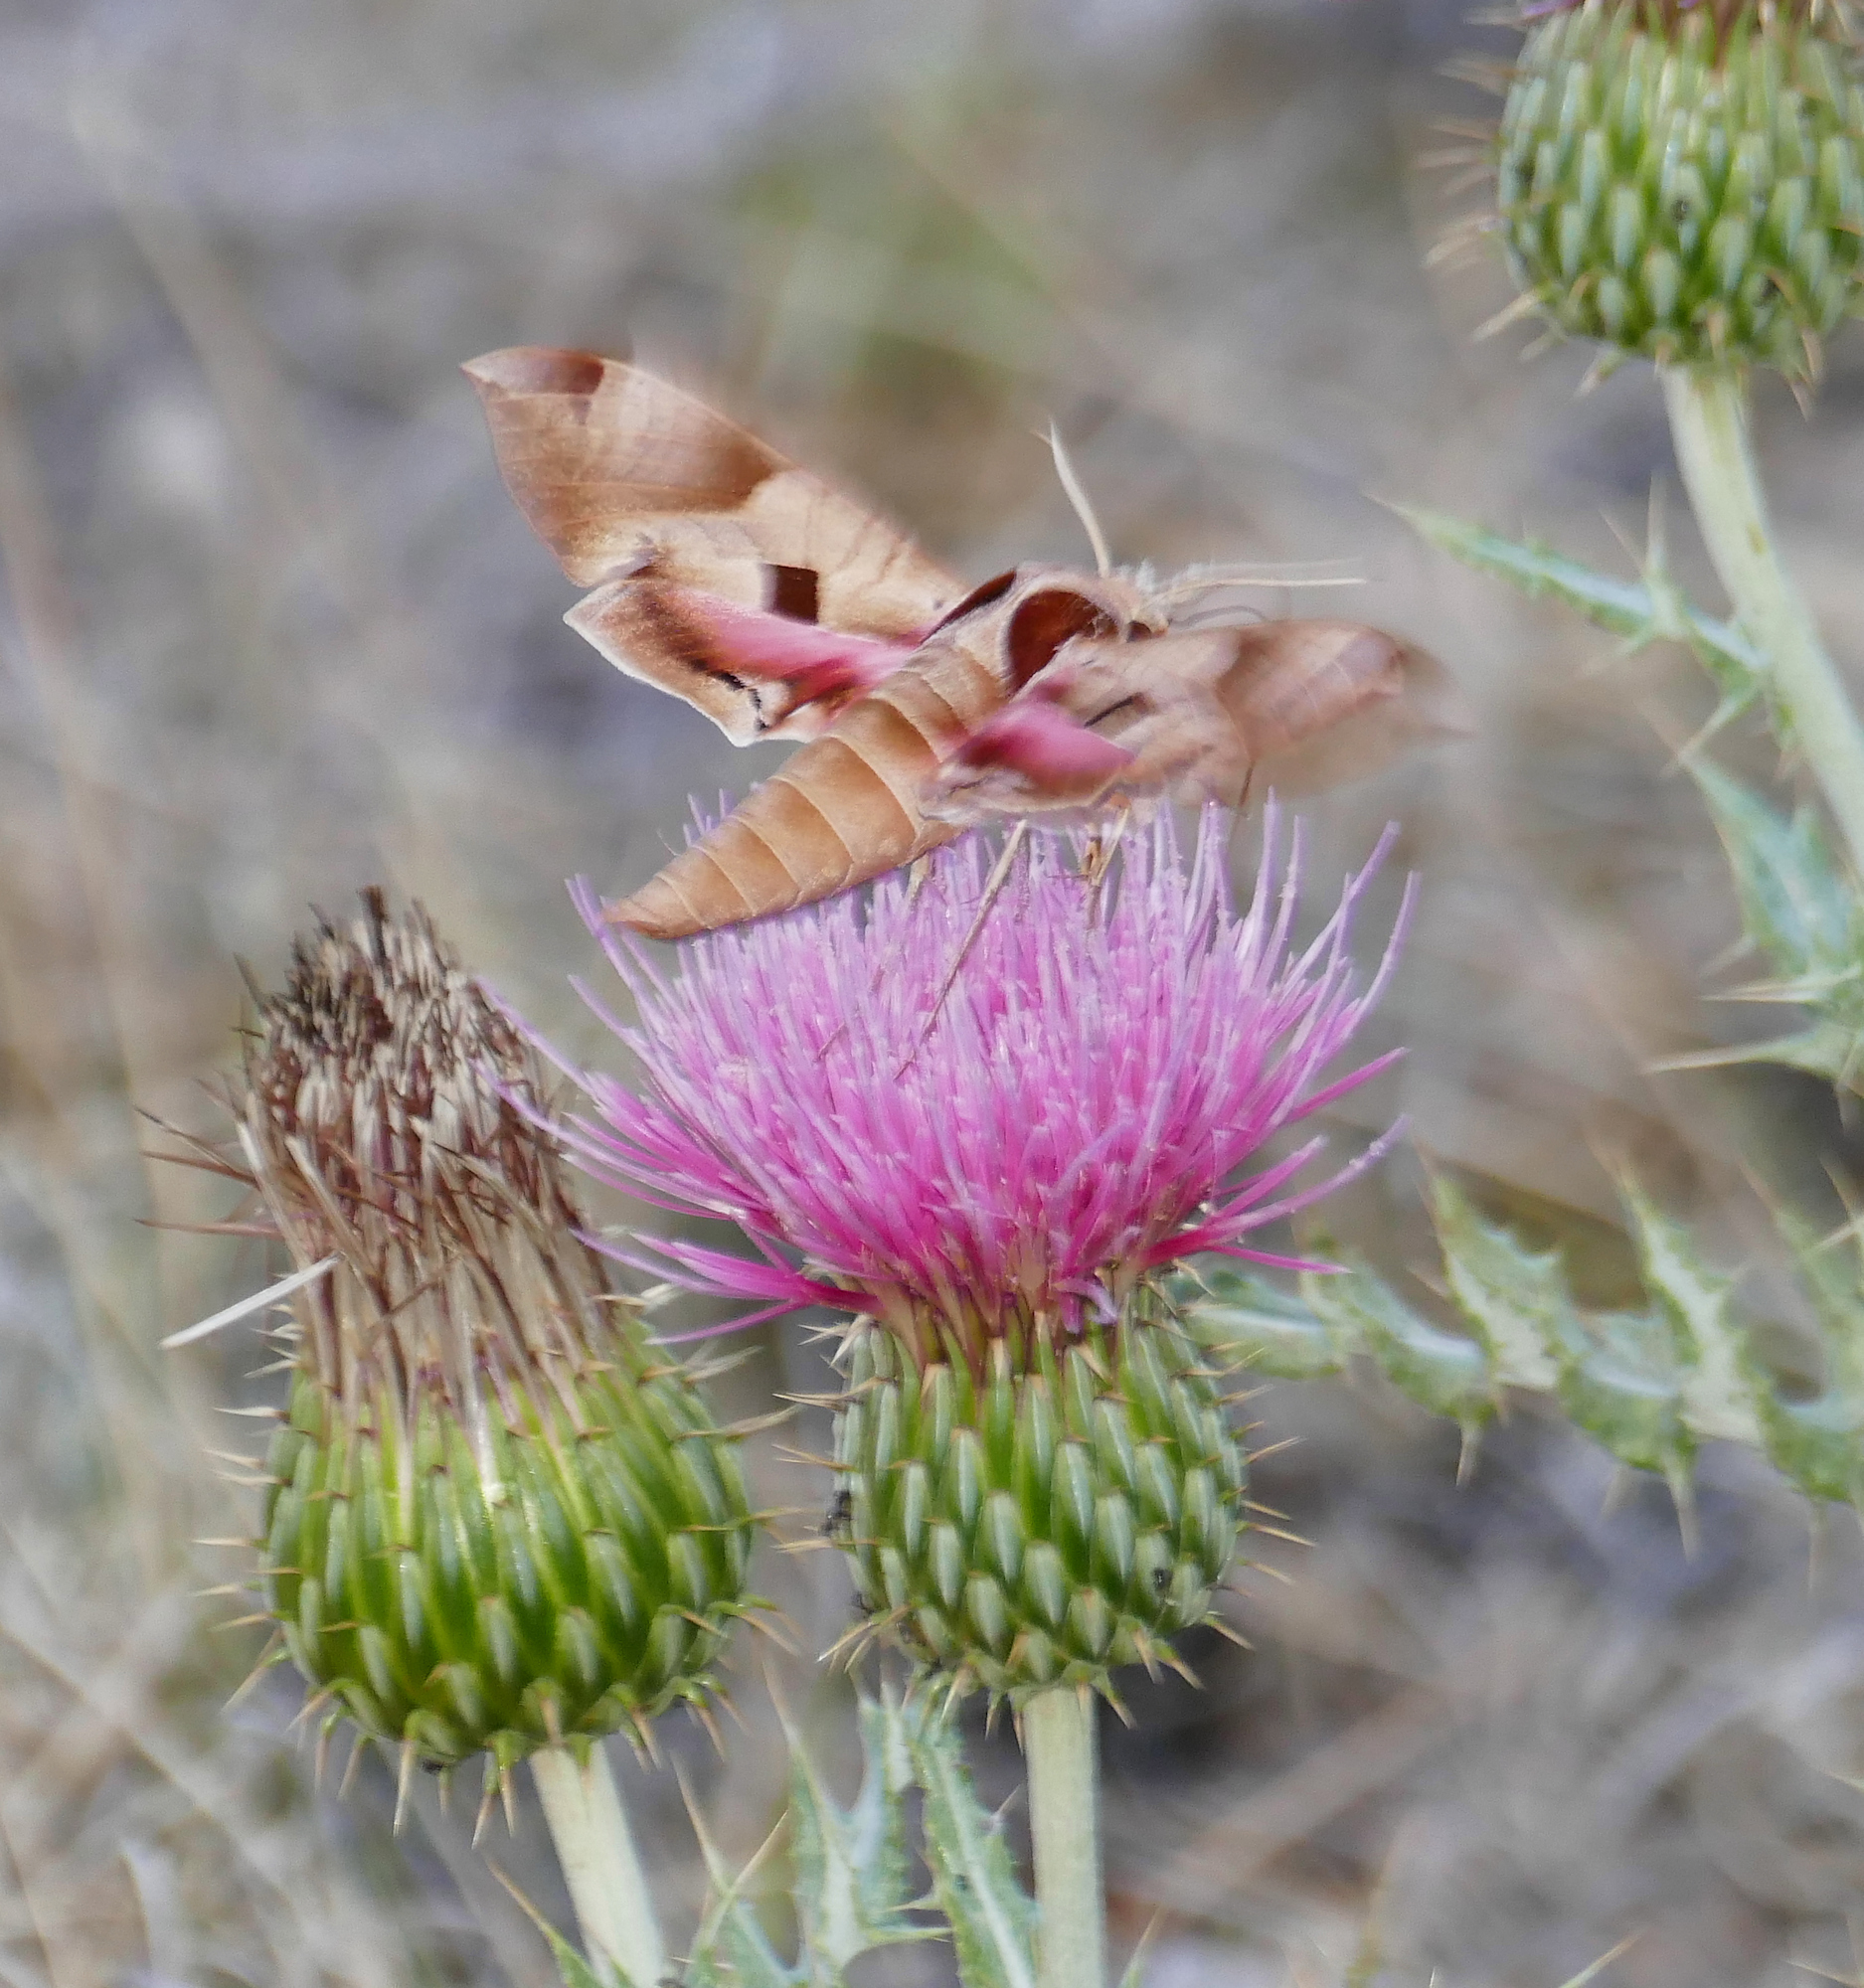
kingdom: Animalia
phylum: Arthropoda
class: Insecta
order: Lepidoptera
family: Sphingidae
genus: Eumorpha
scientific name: Eumorpha achemon
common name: Achemon sphinx
